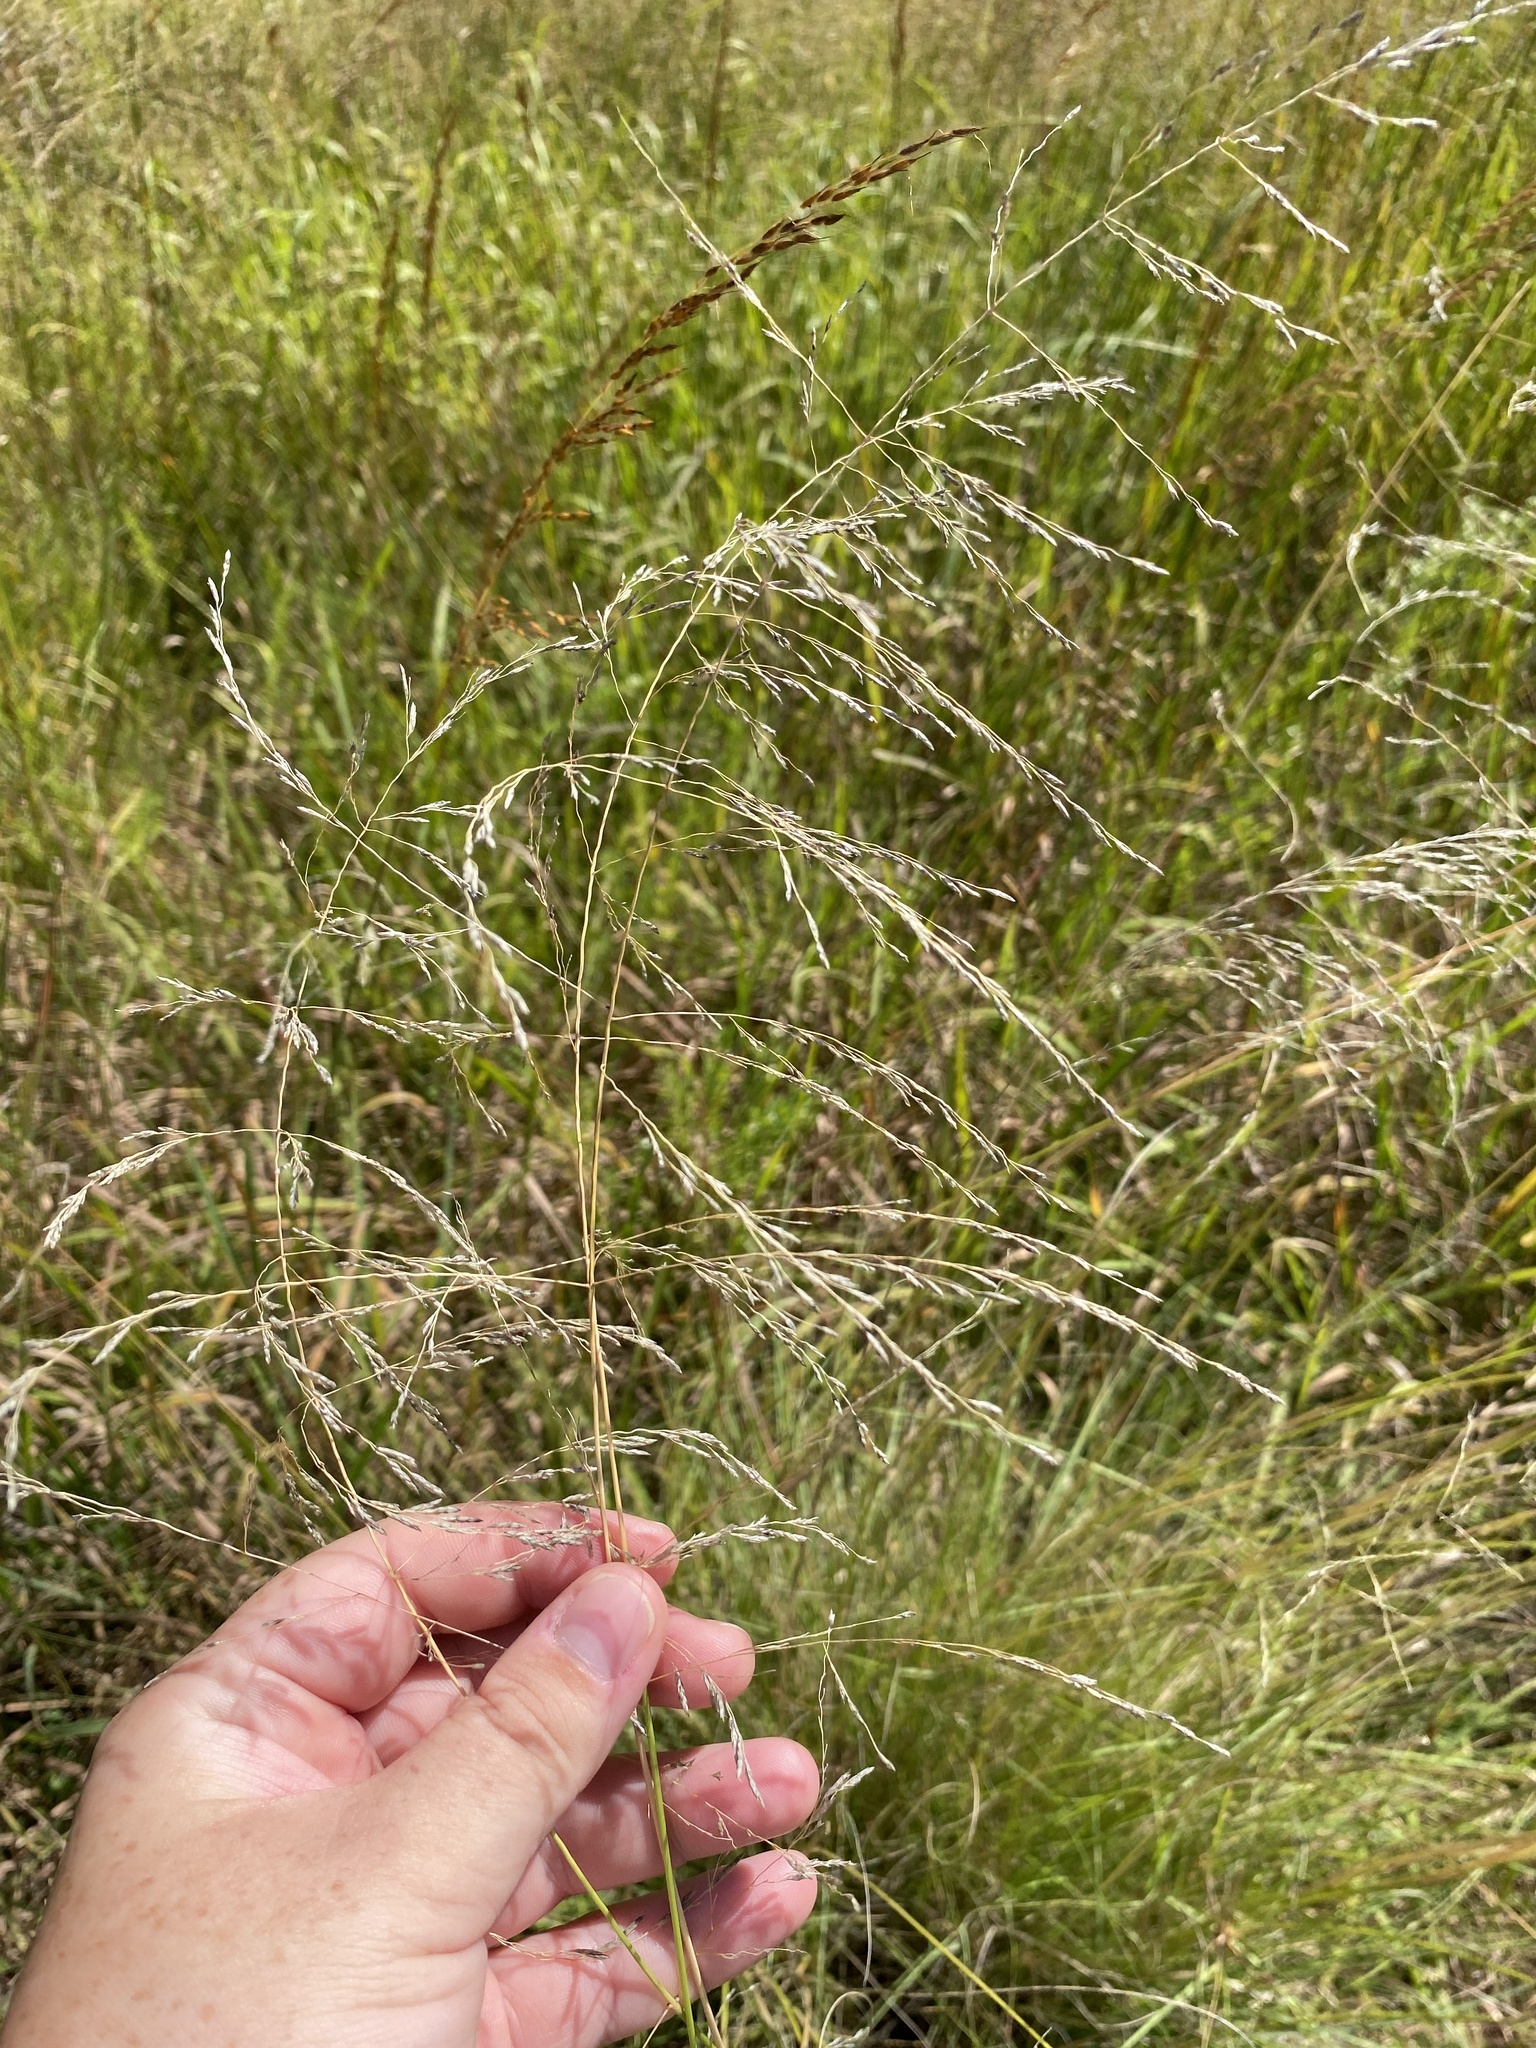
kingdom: Plantae
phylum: Tracheophyta
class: Liliopsida
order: Poales
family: Poaceae
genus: Eragrostis
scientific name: Eragrostis curvula
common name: African love-grass
